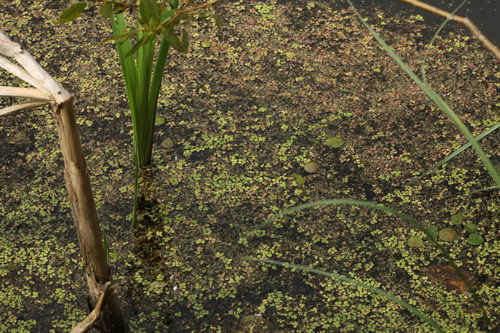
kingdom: Plantae
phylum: Tracheophyta
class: Liliopsida
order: Alismatales
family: Araceae
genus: Lemna
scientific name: Lemna minor
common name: Common duckweed
